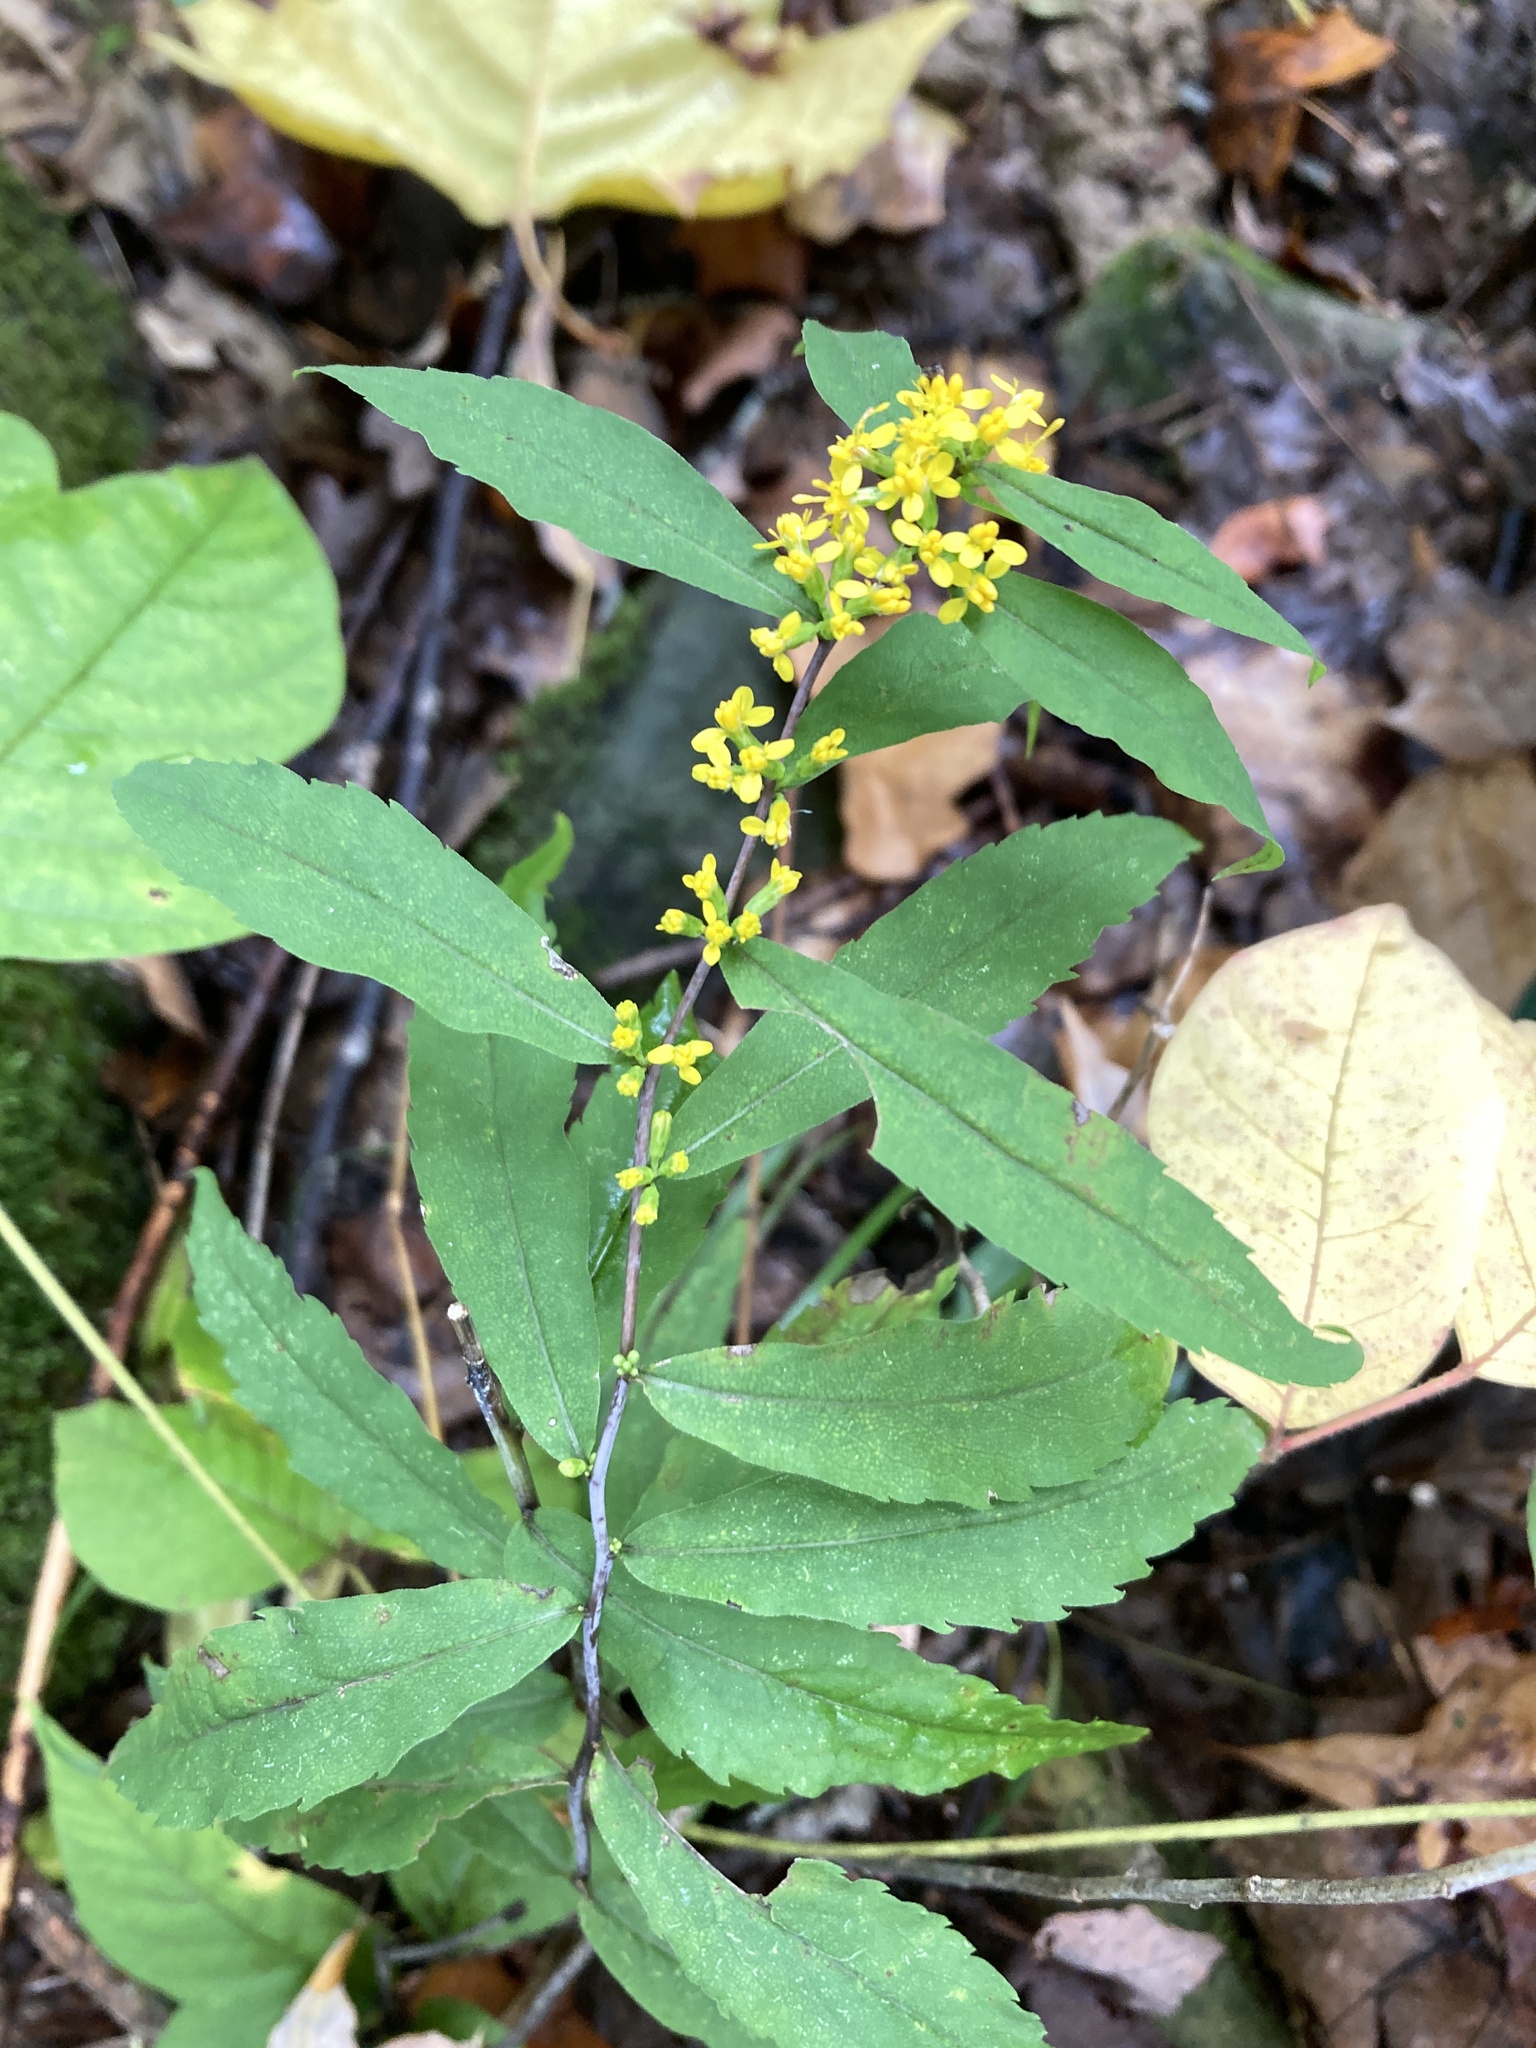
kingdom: Plantae
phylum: Tracheophyta
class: Magnoliopsida
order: Asterales
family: Asteraceae
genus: Solidago
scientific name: Solidago caesia
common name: Woodland goldenrod
